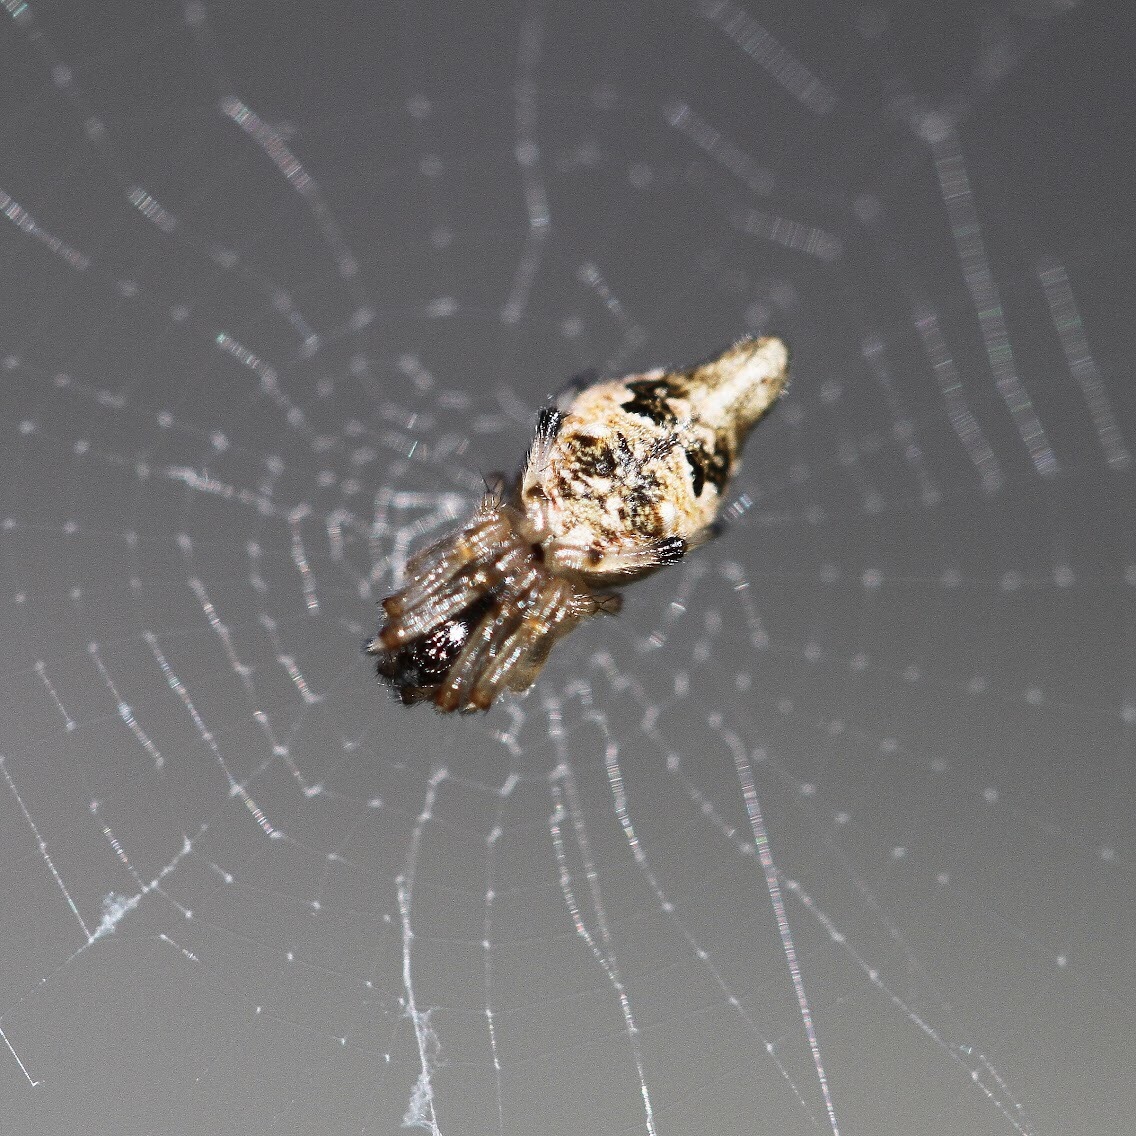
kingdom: Animalia
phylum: Arthropoda
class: Arachnida
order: Araneae
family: Araneidae
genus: Cyclosa
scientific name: Cyclosa turbinata
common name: Orb weavers
